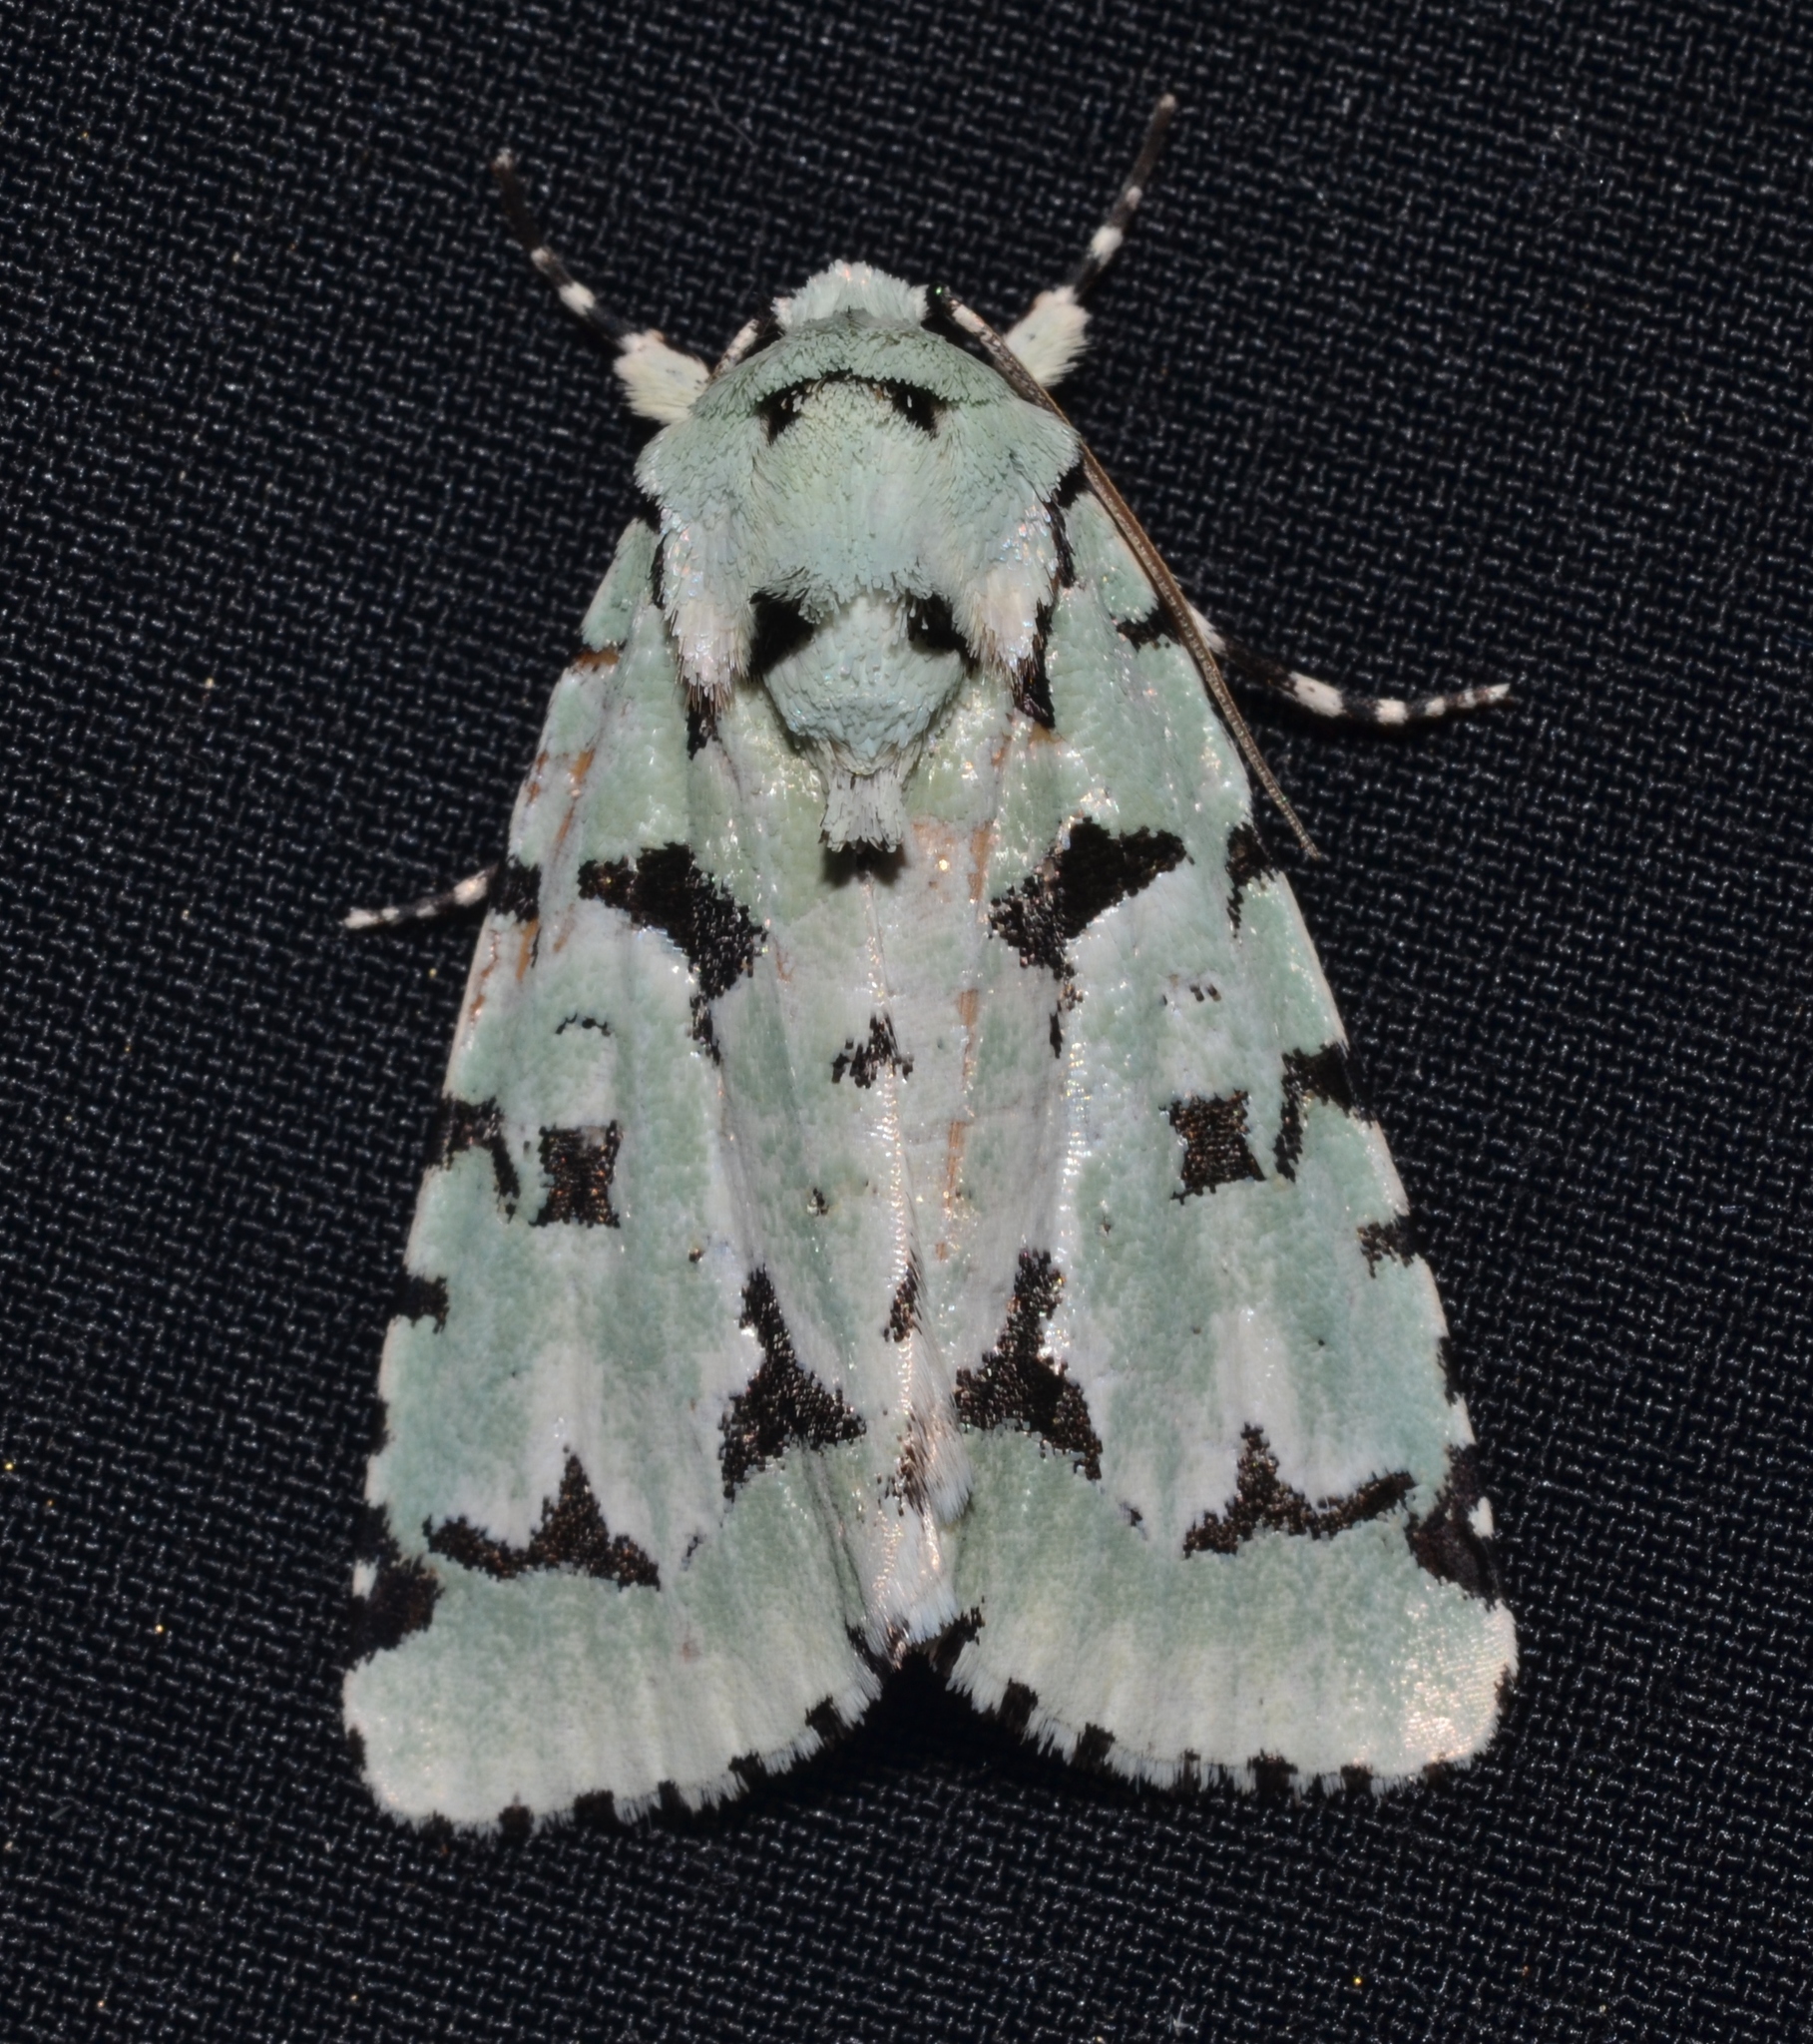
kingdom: Animalia
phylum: Arthropoda
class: Insecta
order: Lepidoptera
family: Noctuidae
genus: Acronicta
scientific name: Acronicta fallax
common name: Green marvel
